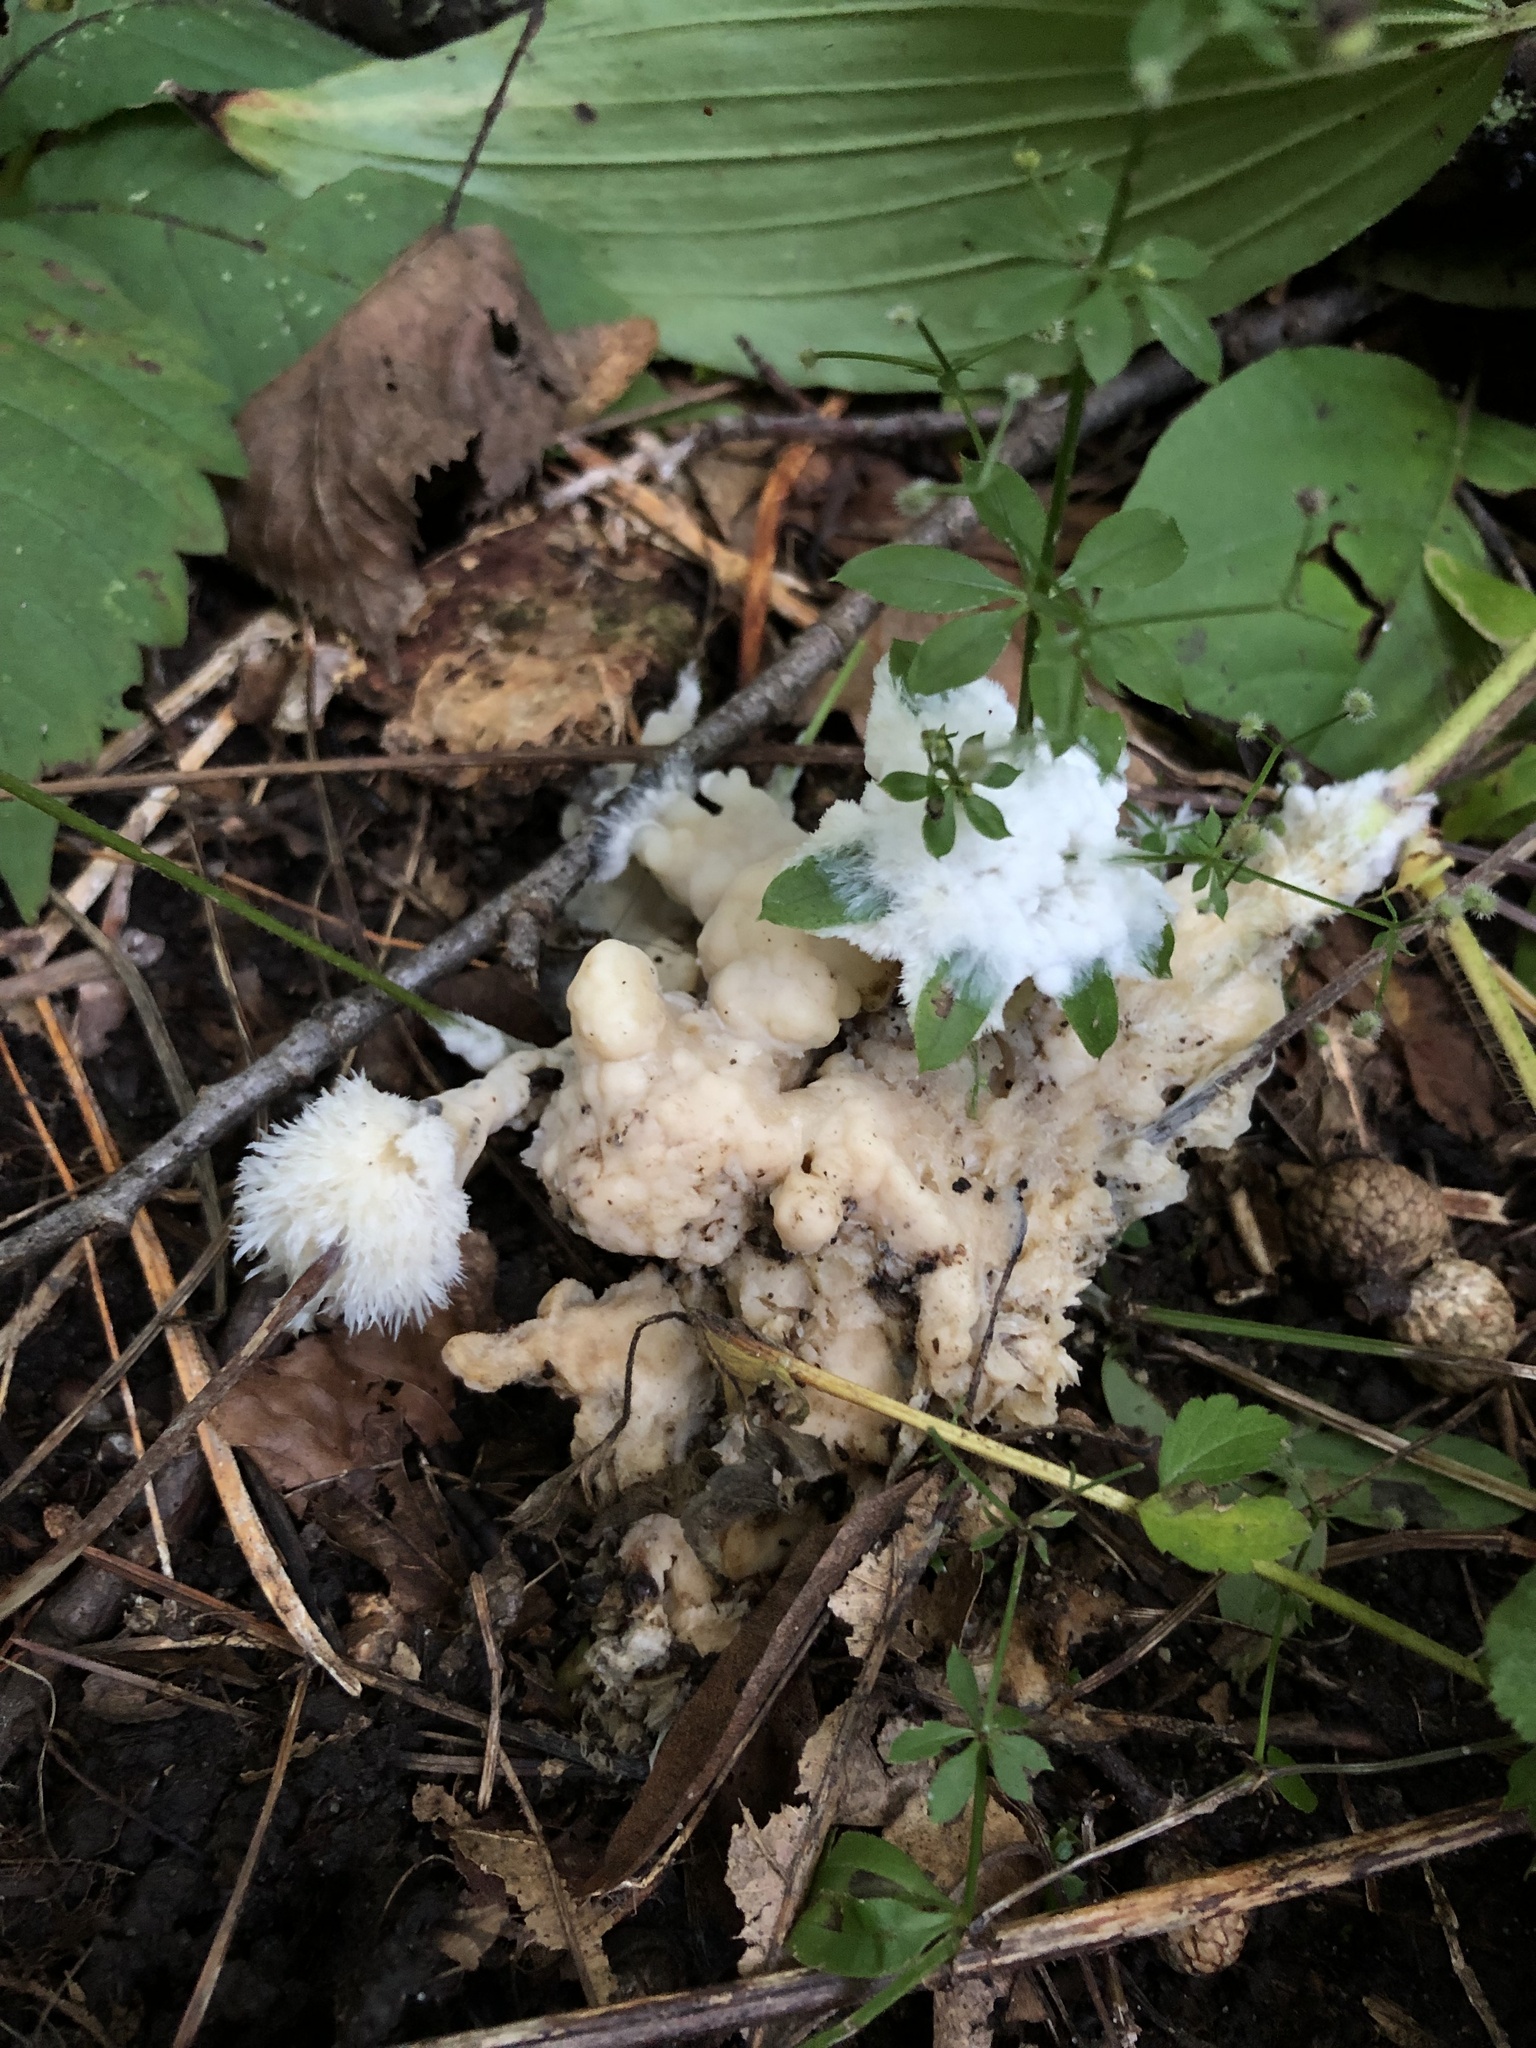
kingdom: Fungi
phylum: Basidiomycota
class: Agaricomycetes
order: Sebacinales
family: Sebacinaceae
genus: Sebacina
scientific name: Sebacina incrustans
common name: Enveloping crust
